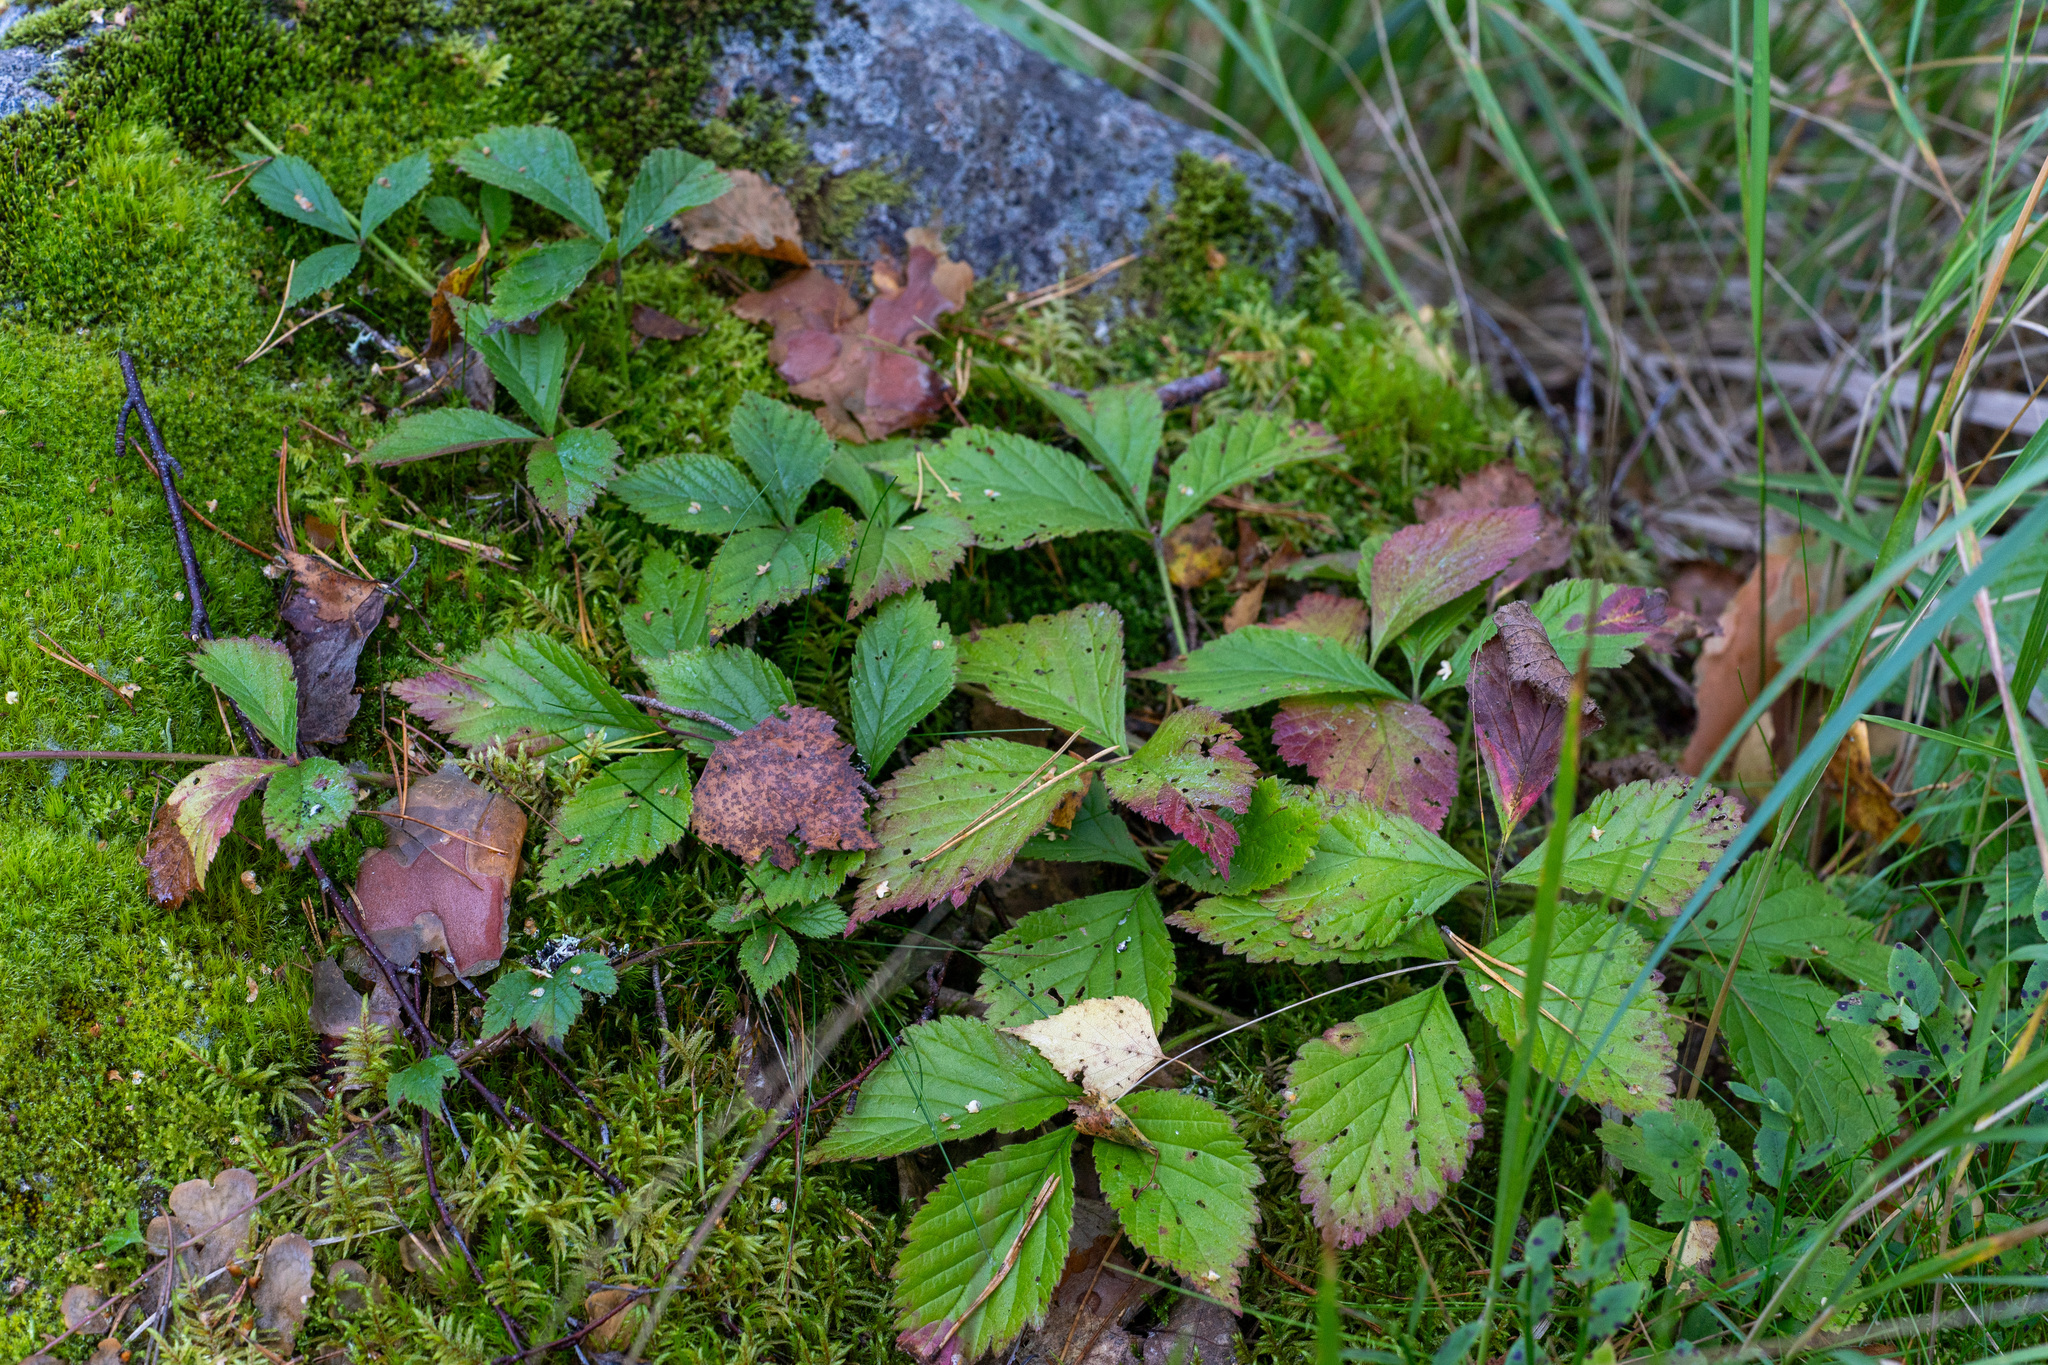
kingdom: Plantae
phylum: Tracheophyta
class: Magnoliopsida
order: Rosales
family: Rosaceae
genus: Rubus
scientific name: Rubus saxatilis
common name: Stone bramble
